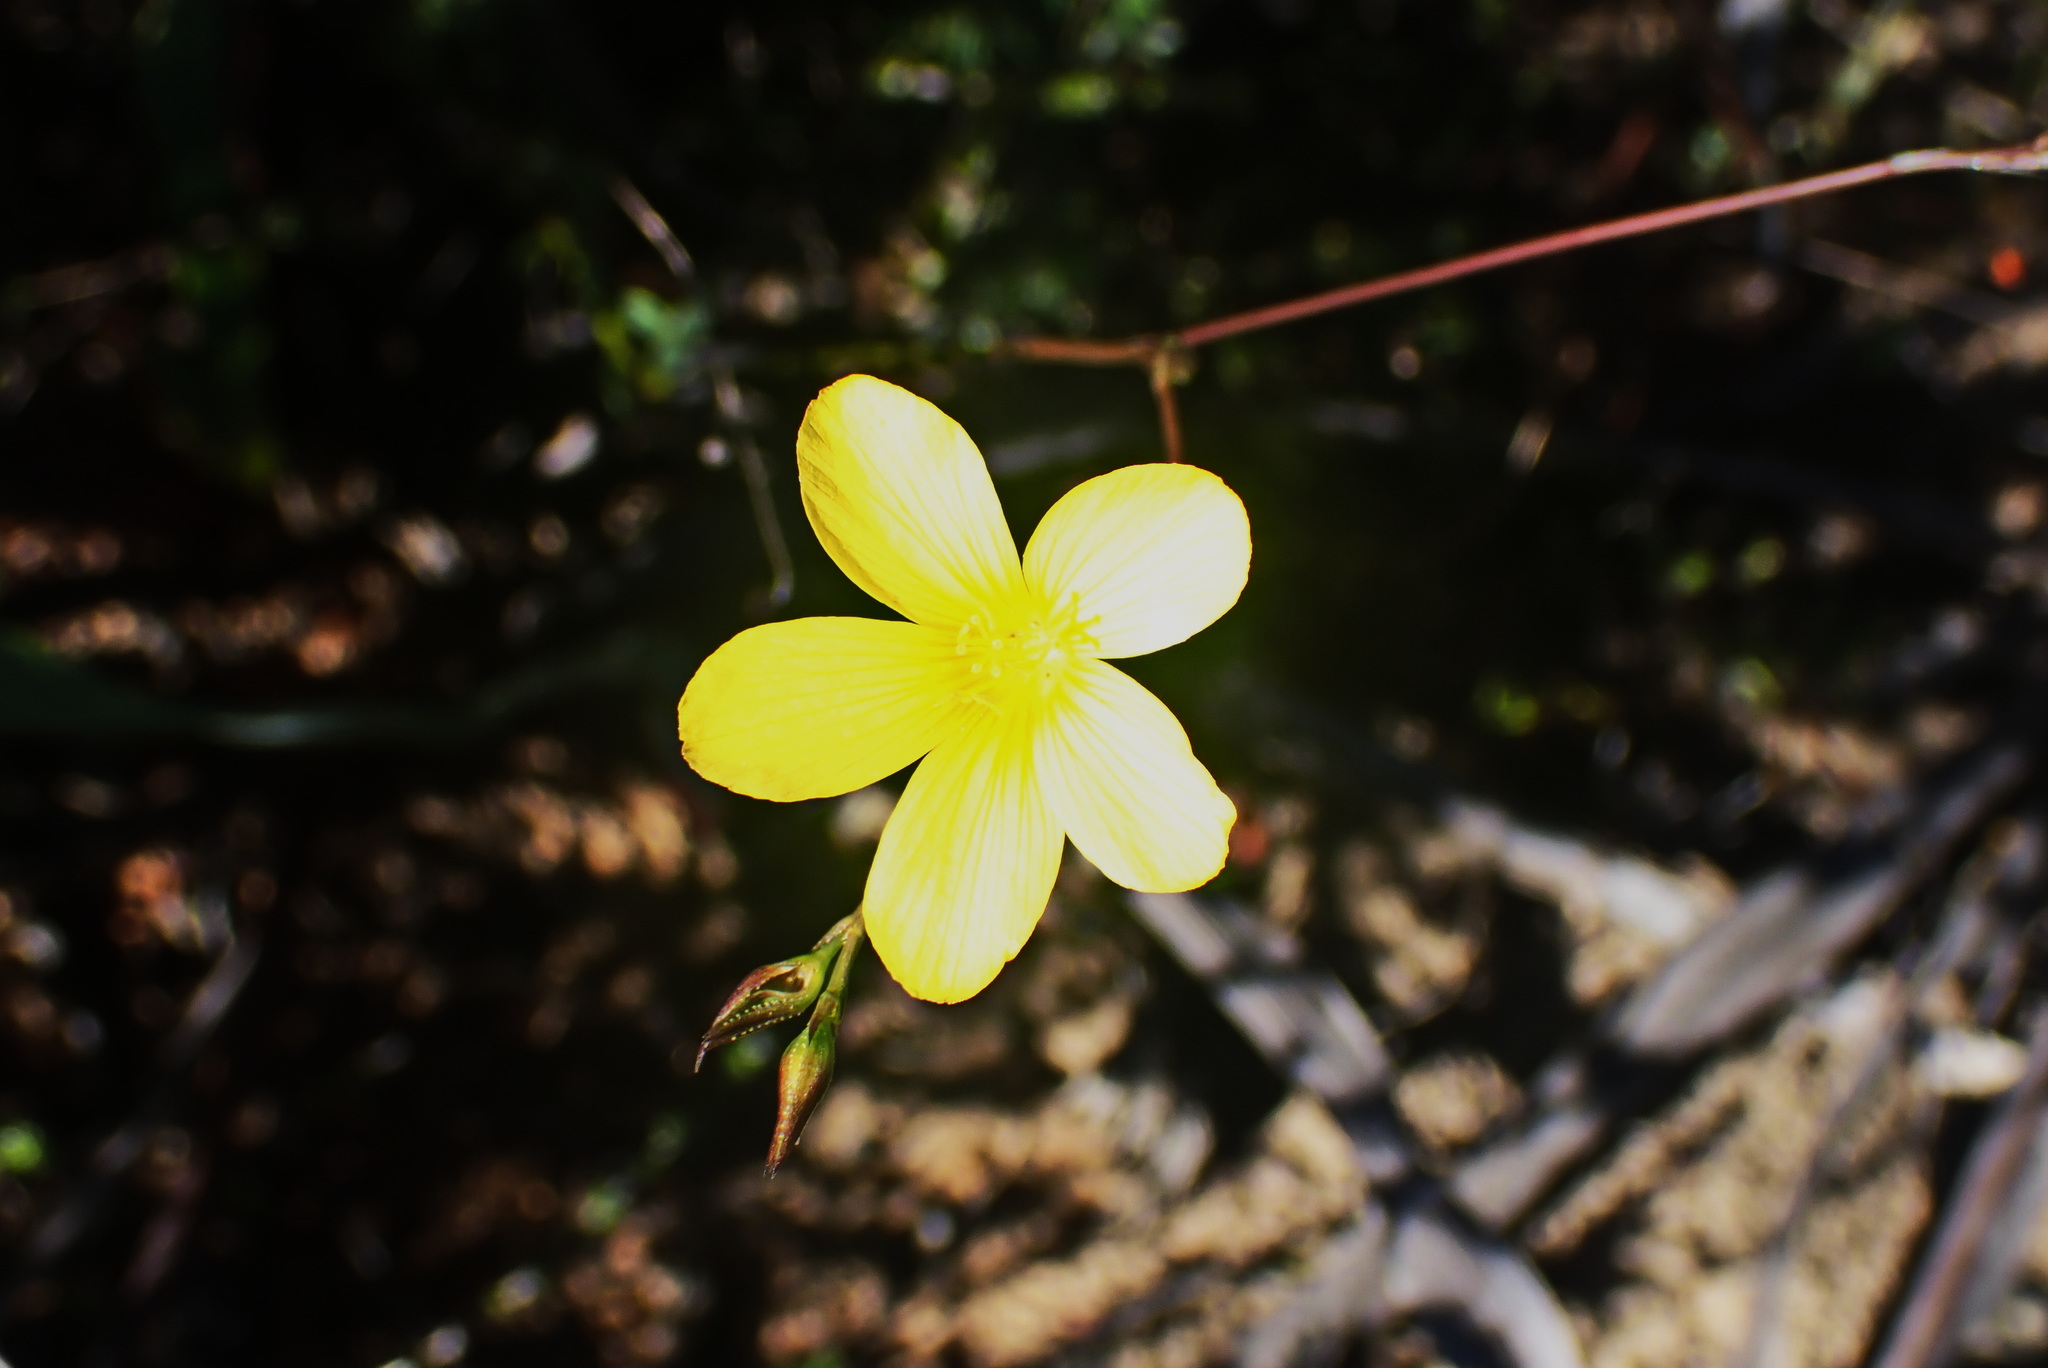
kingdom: Plantae
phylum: Tracheophyta
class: Magnoliopsida
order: Malpighiales
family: Linaceae
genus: Linum
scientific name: Linum africanum
